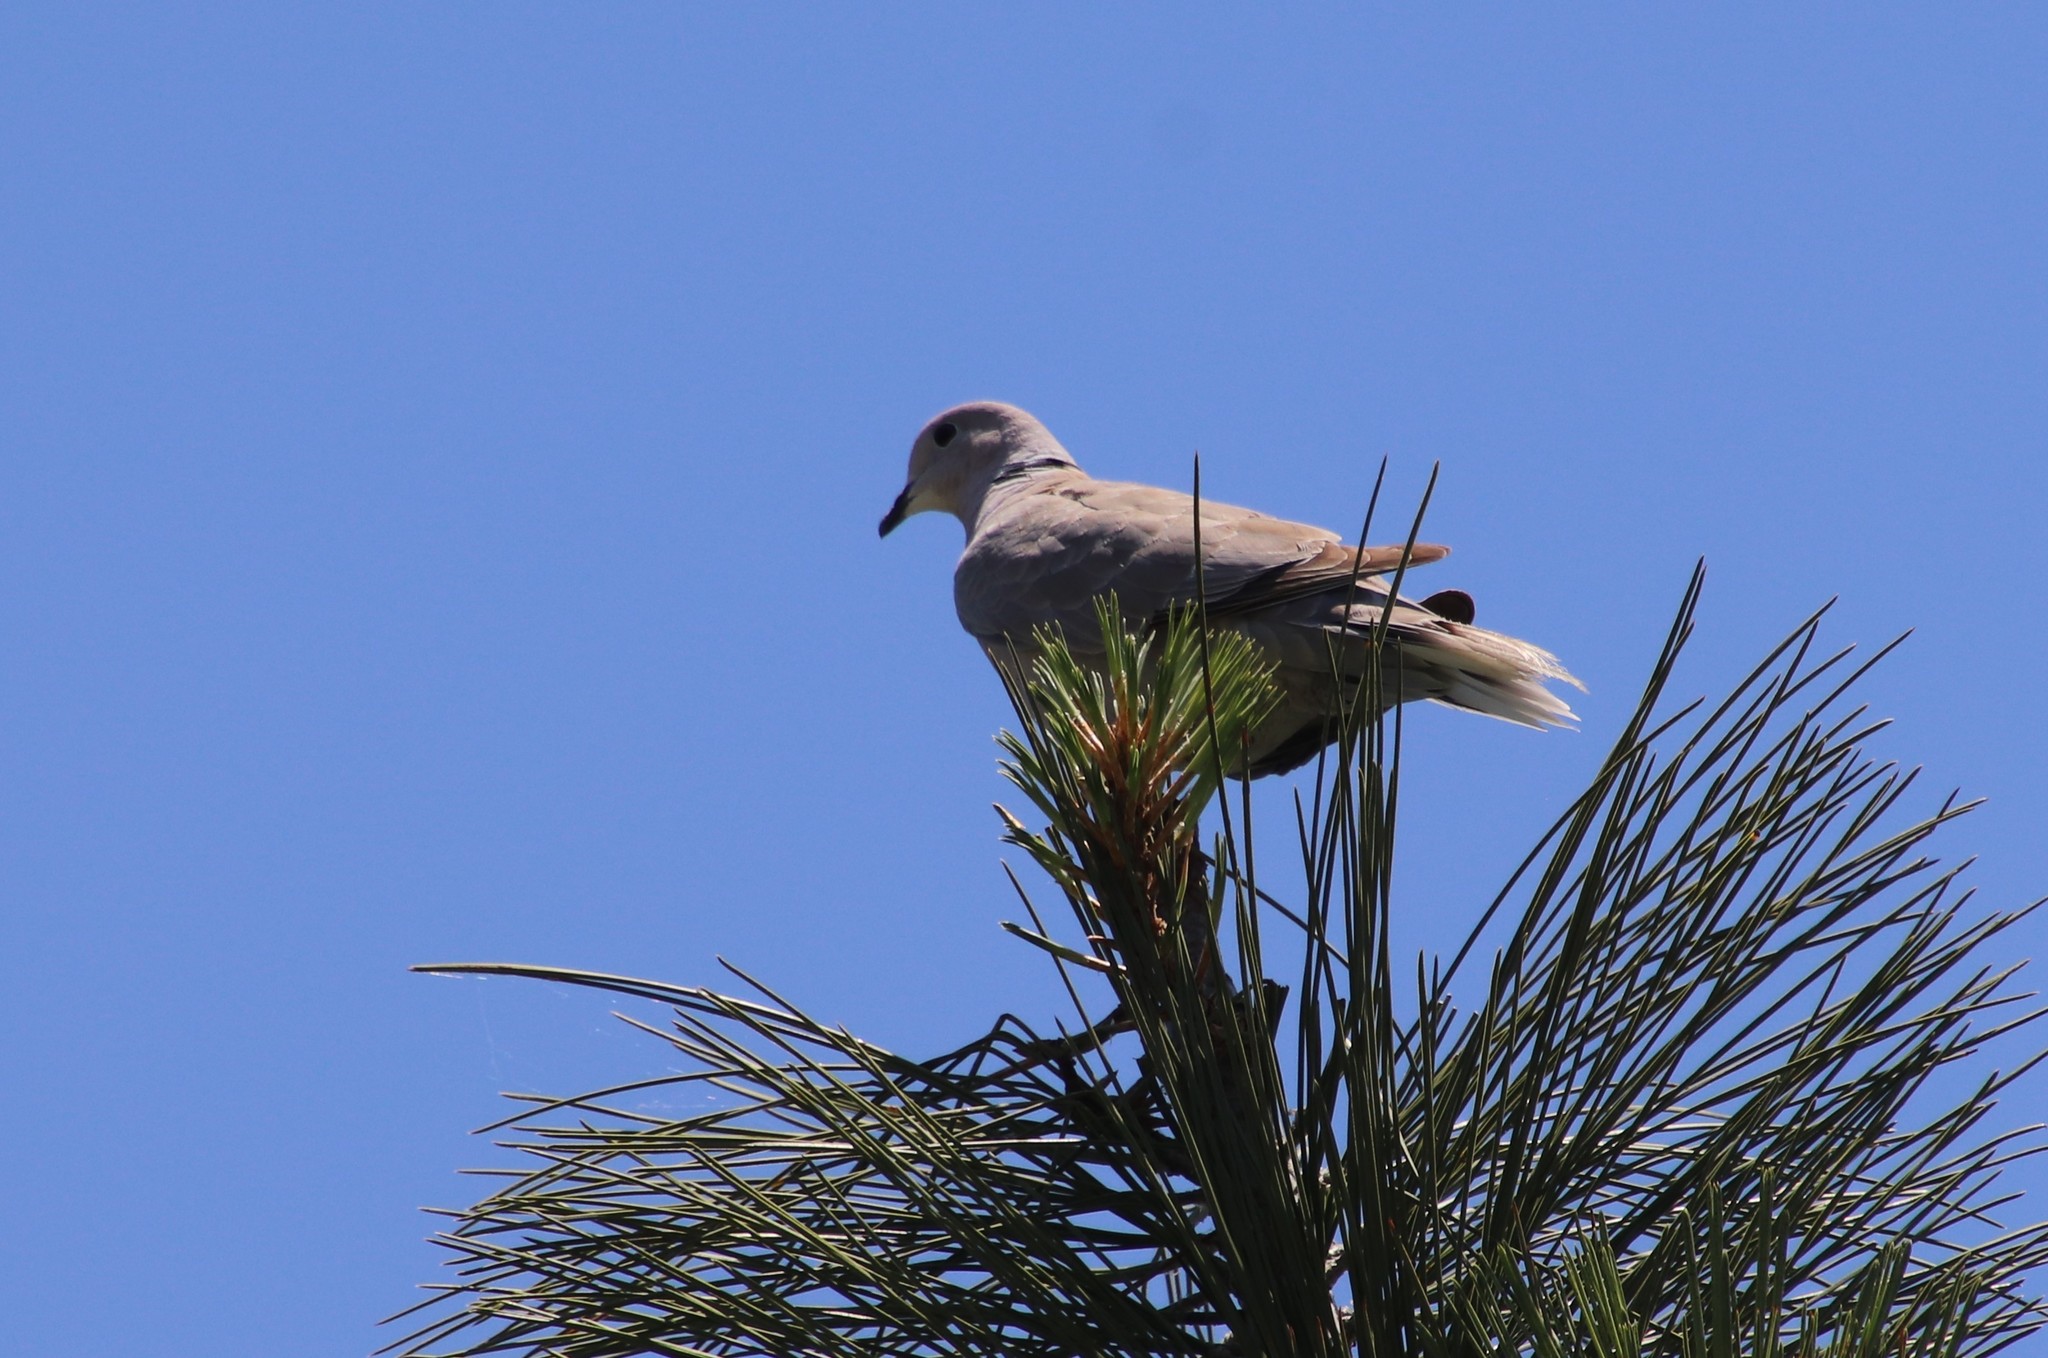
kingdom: Animalia
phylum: Chordata
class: Aves
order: Columbiformes
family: Columbidae
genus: Streptopelia
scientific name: Streptopelia decaocto
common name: Eurasian collared dove
